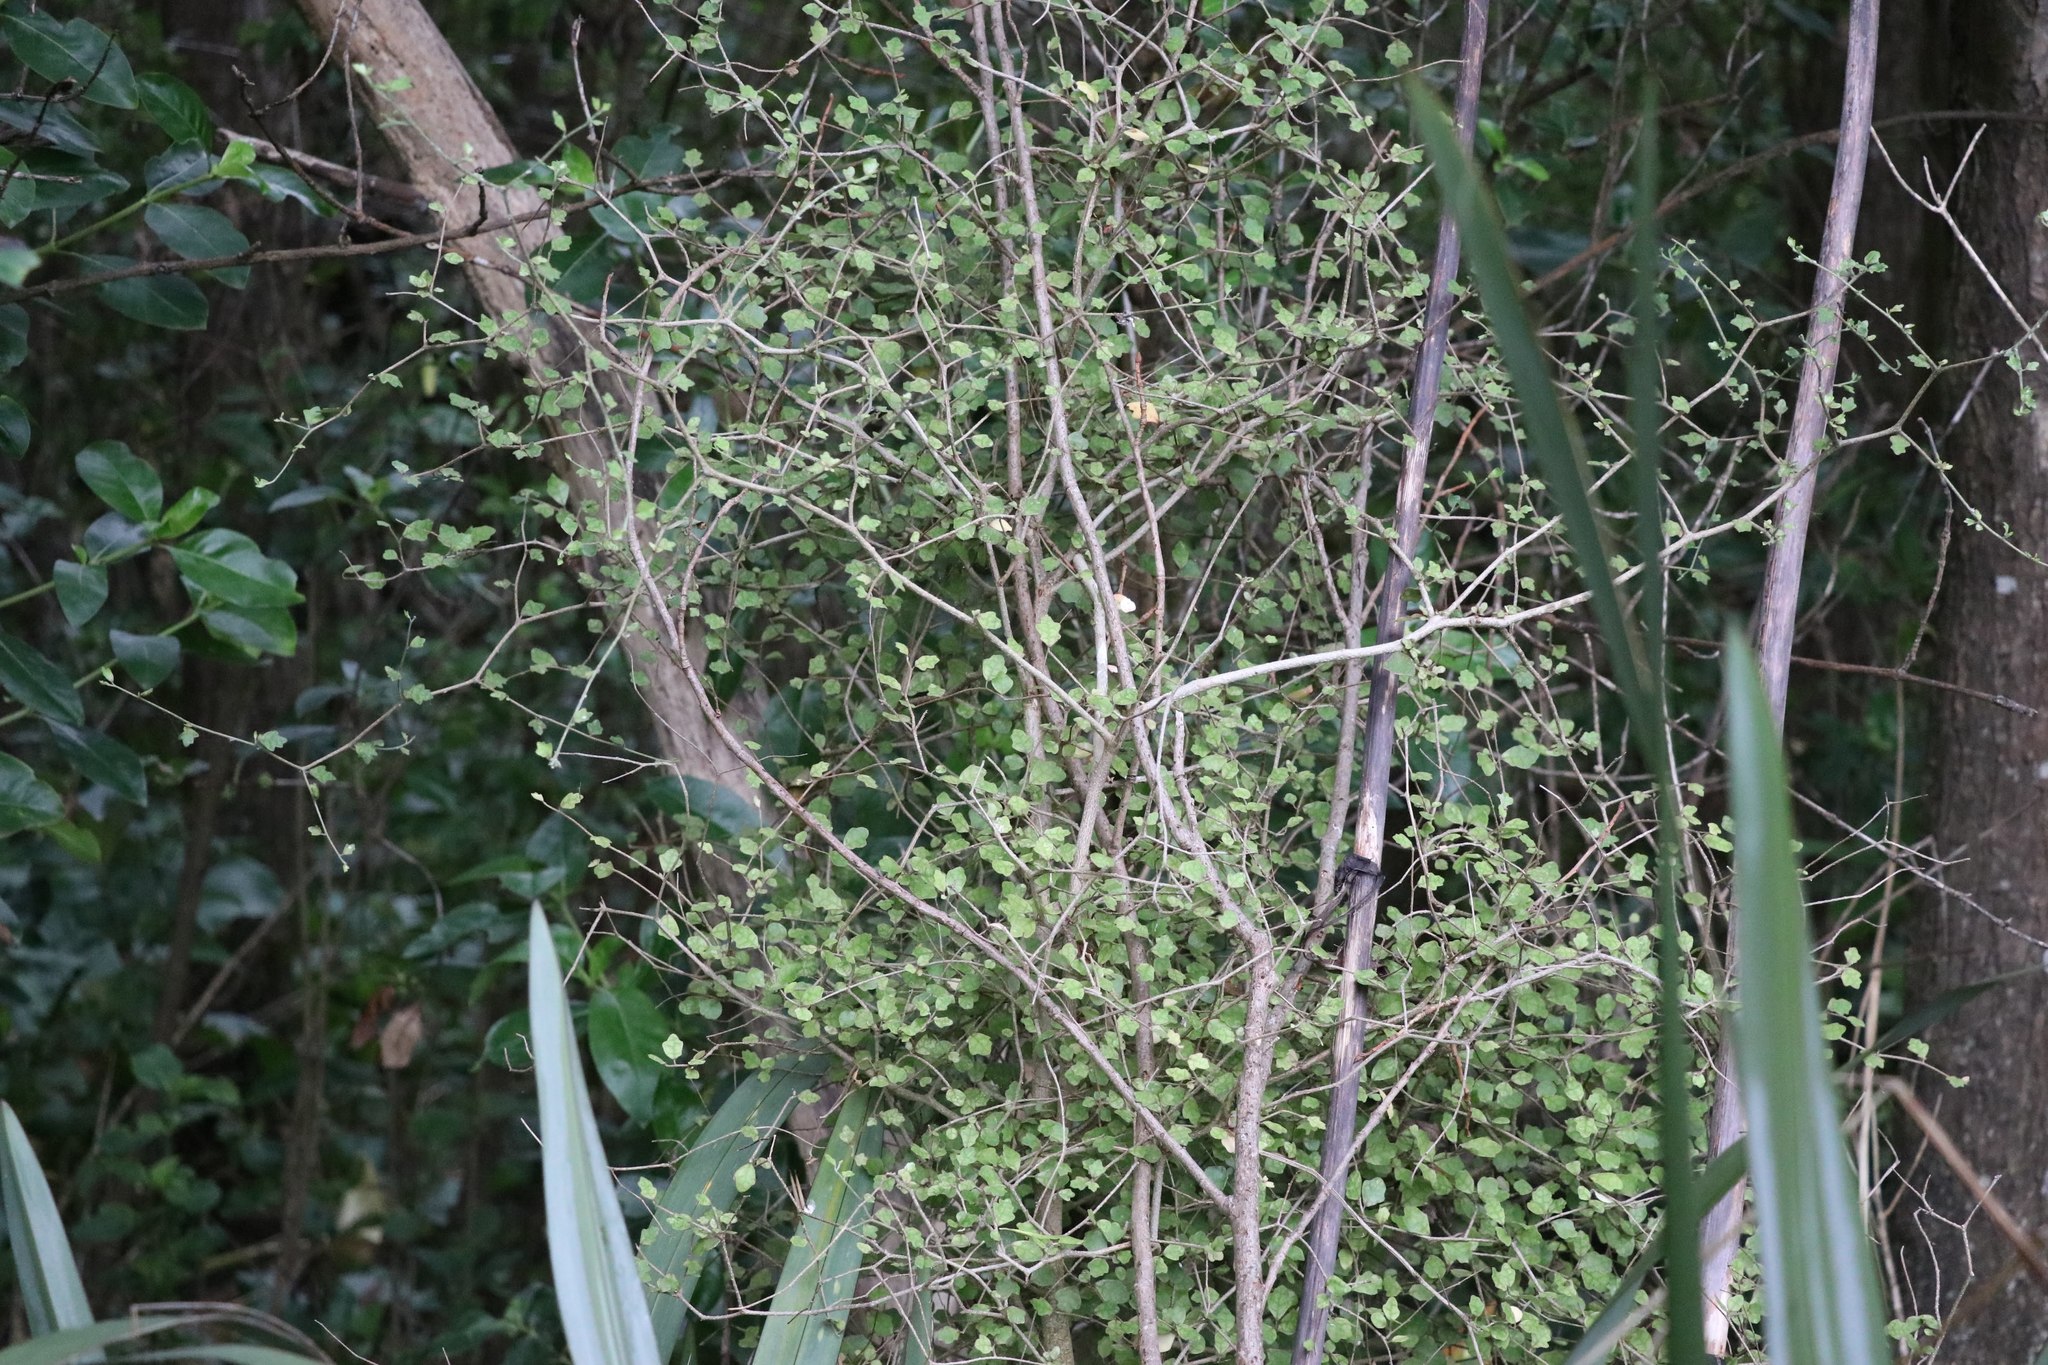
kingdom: Plantae
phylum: Tracheophyta
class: Magnoliopsida
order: Apiales
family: Pennantiaceae
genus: Pennantia
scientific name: Pennantia corymbosa
